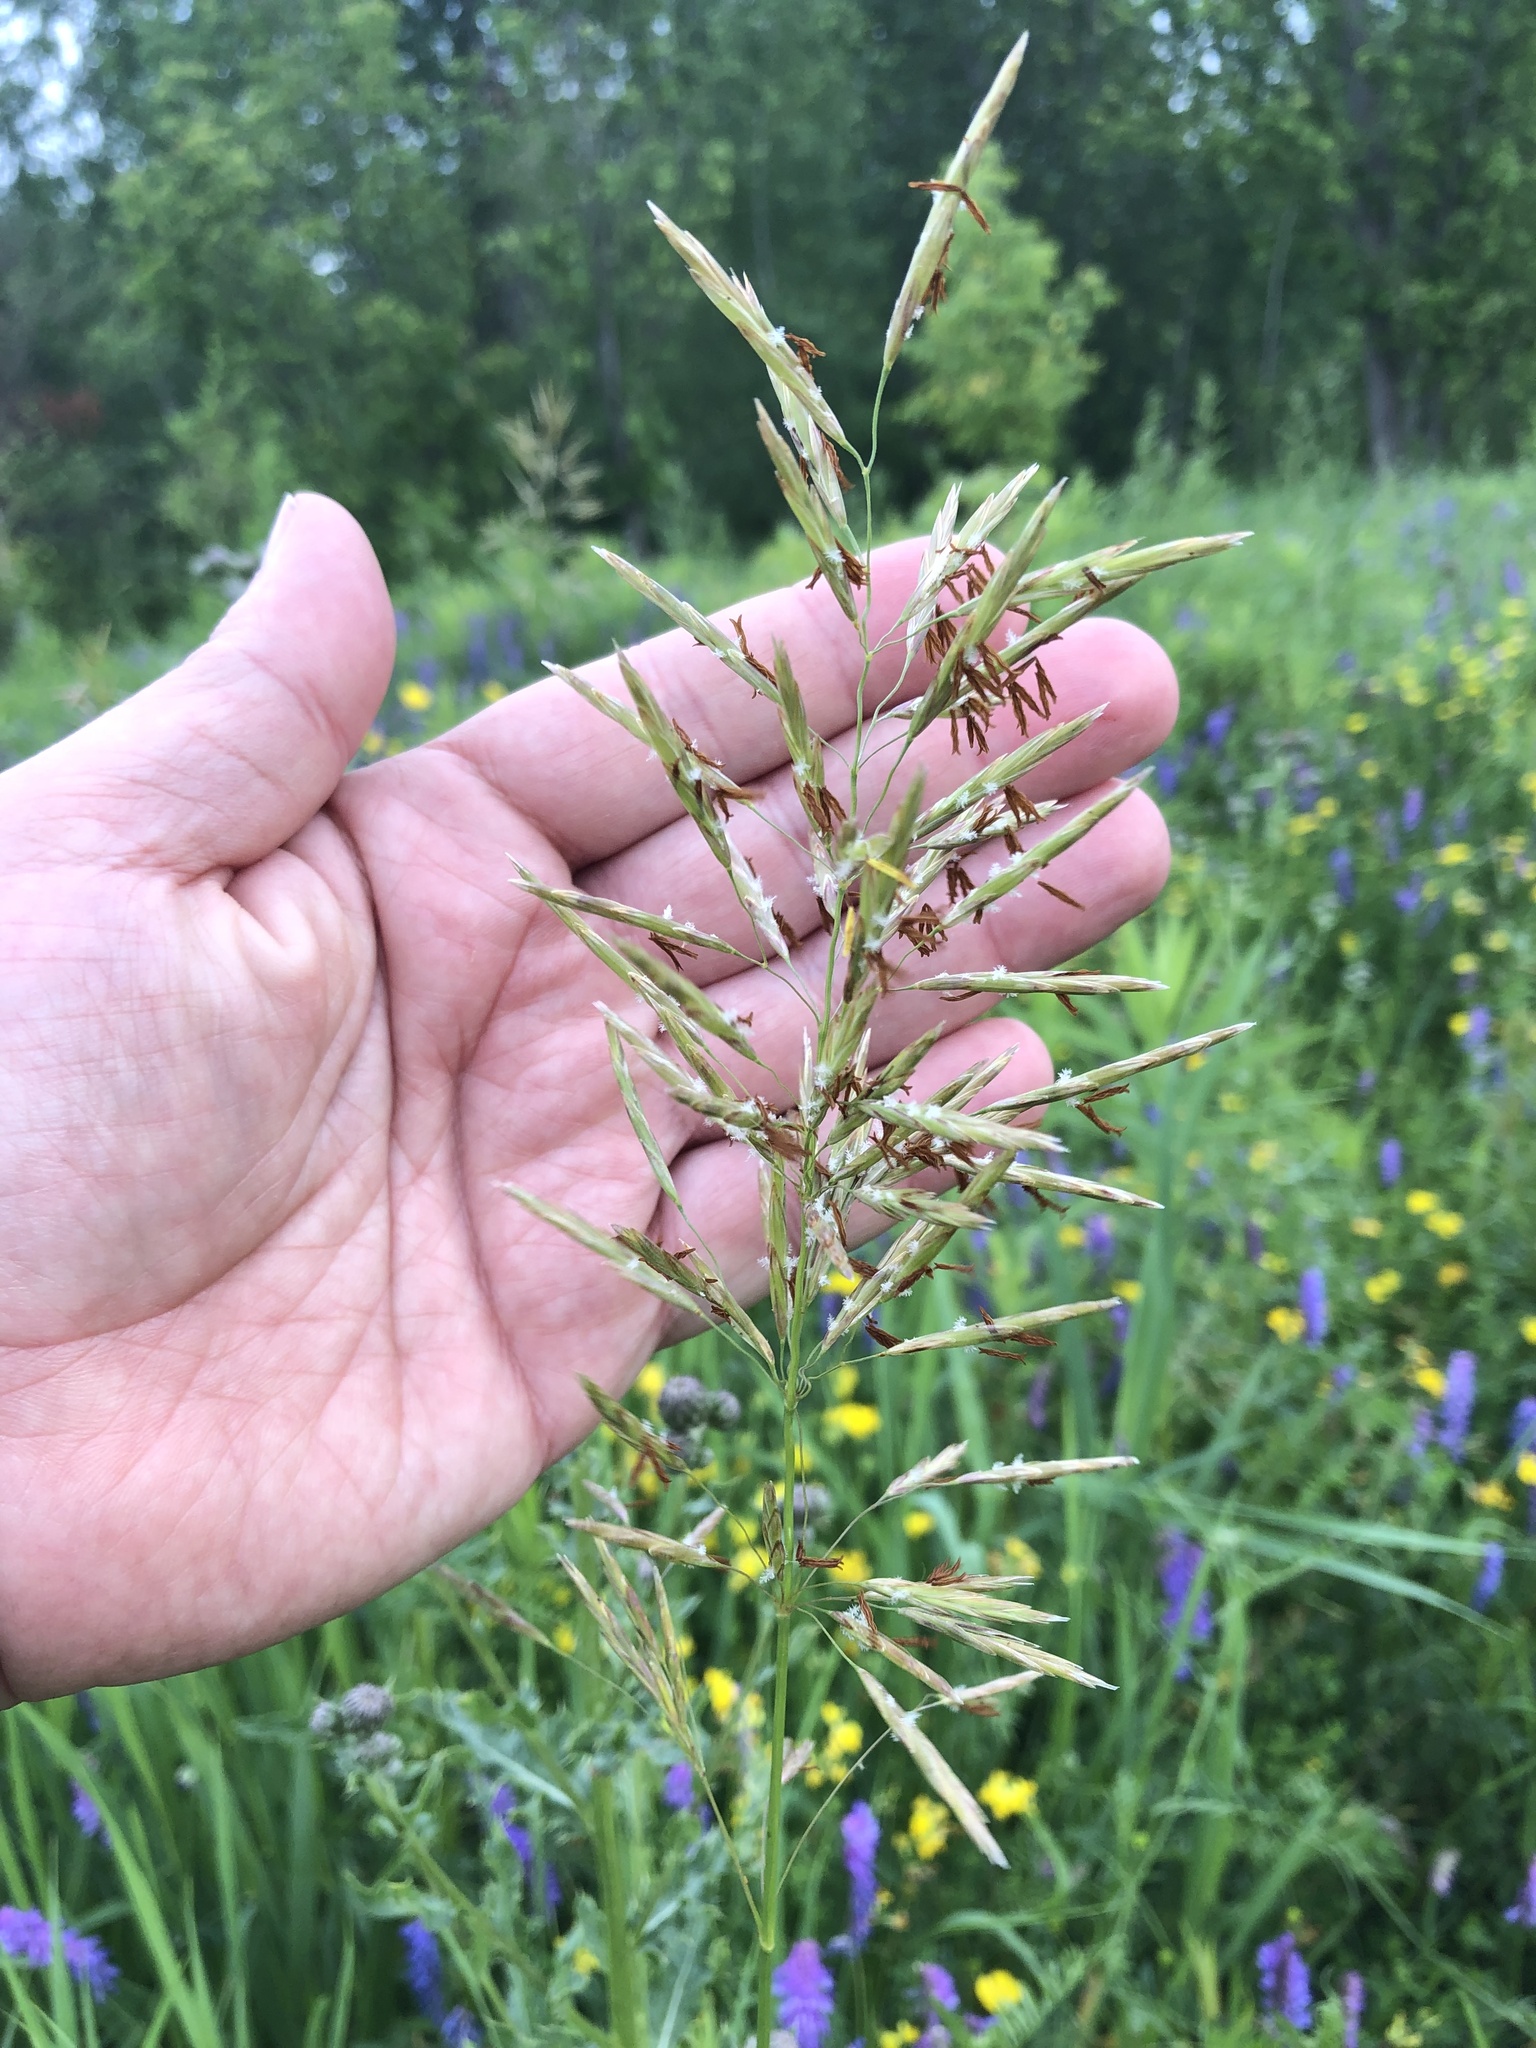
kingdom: Plantae
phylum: Tracheophyta
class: Liliopsida
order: Poales
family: Poaceae
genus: Bromus
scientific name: Bromus inermis
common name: Smooth brome
